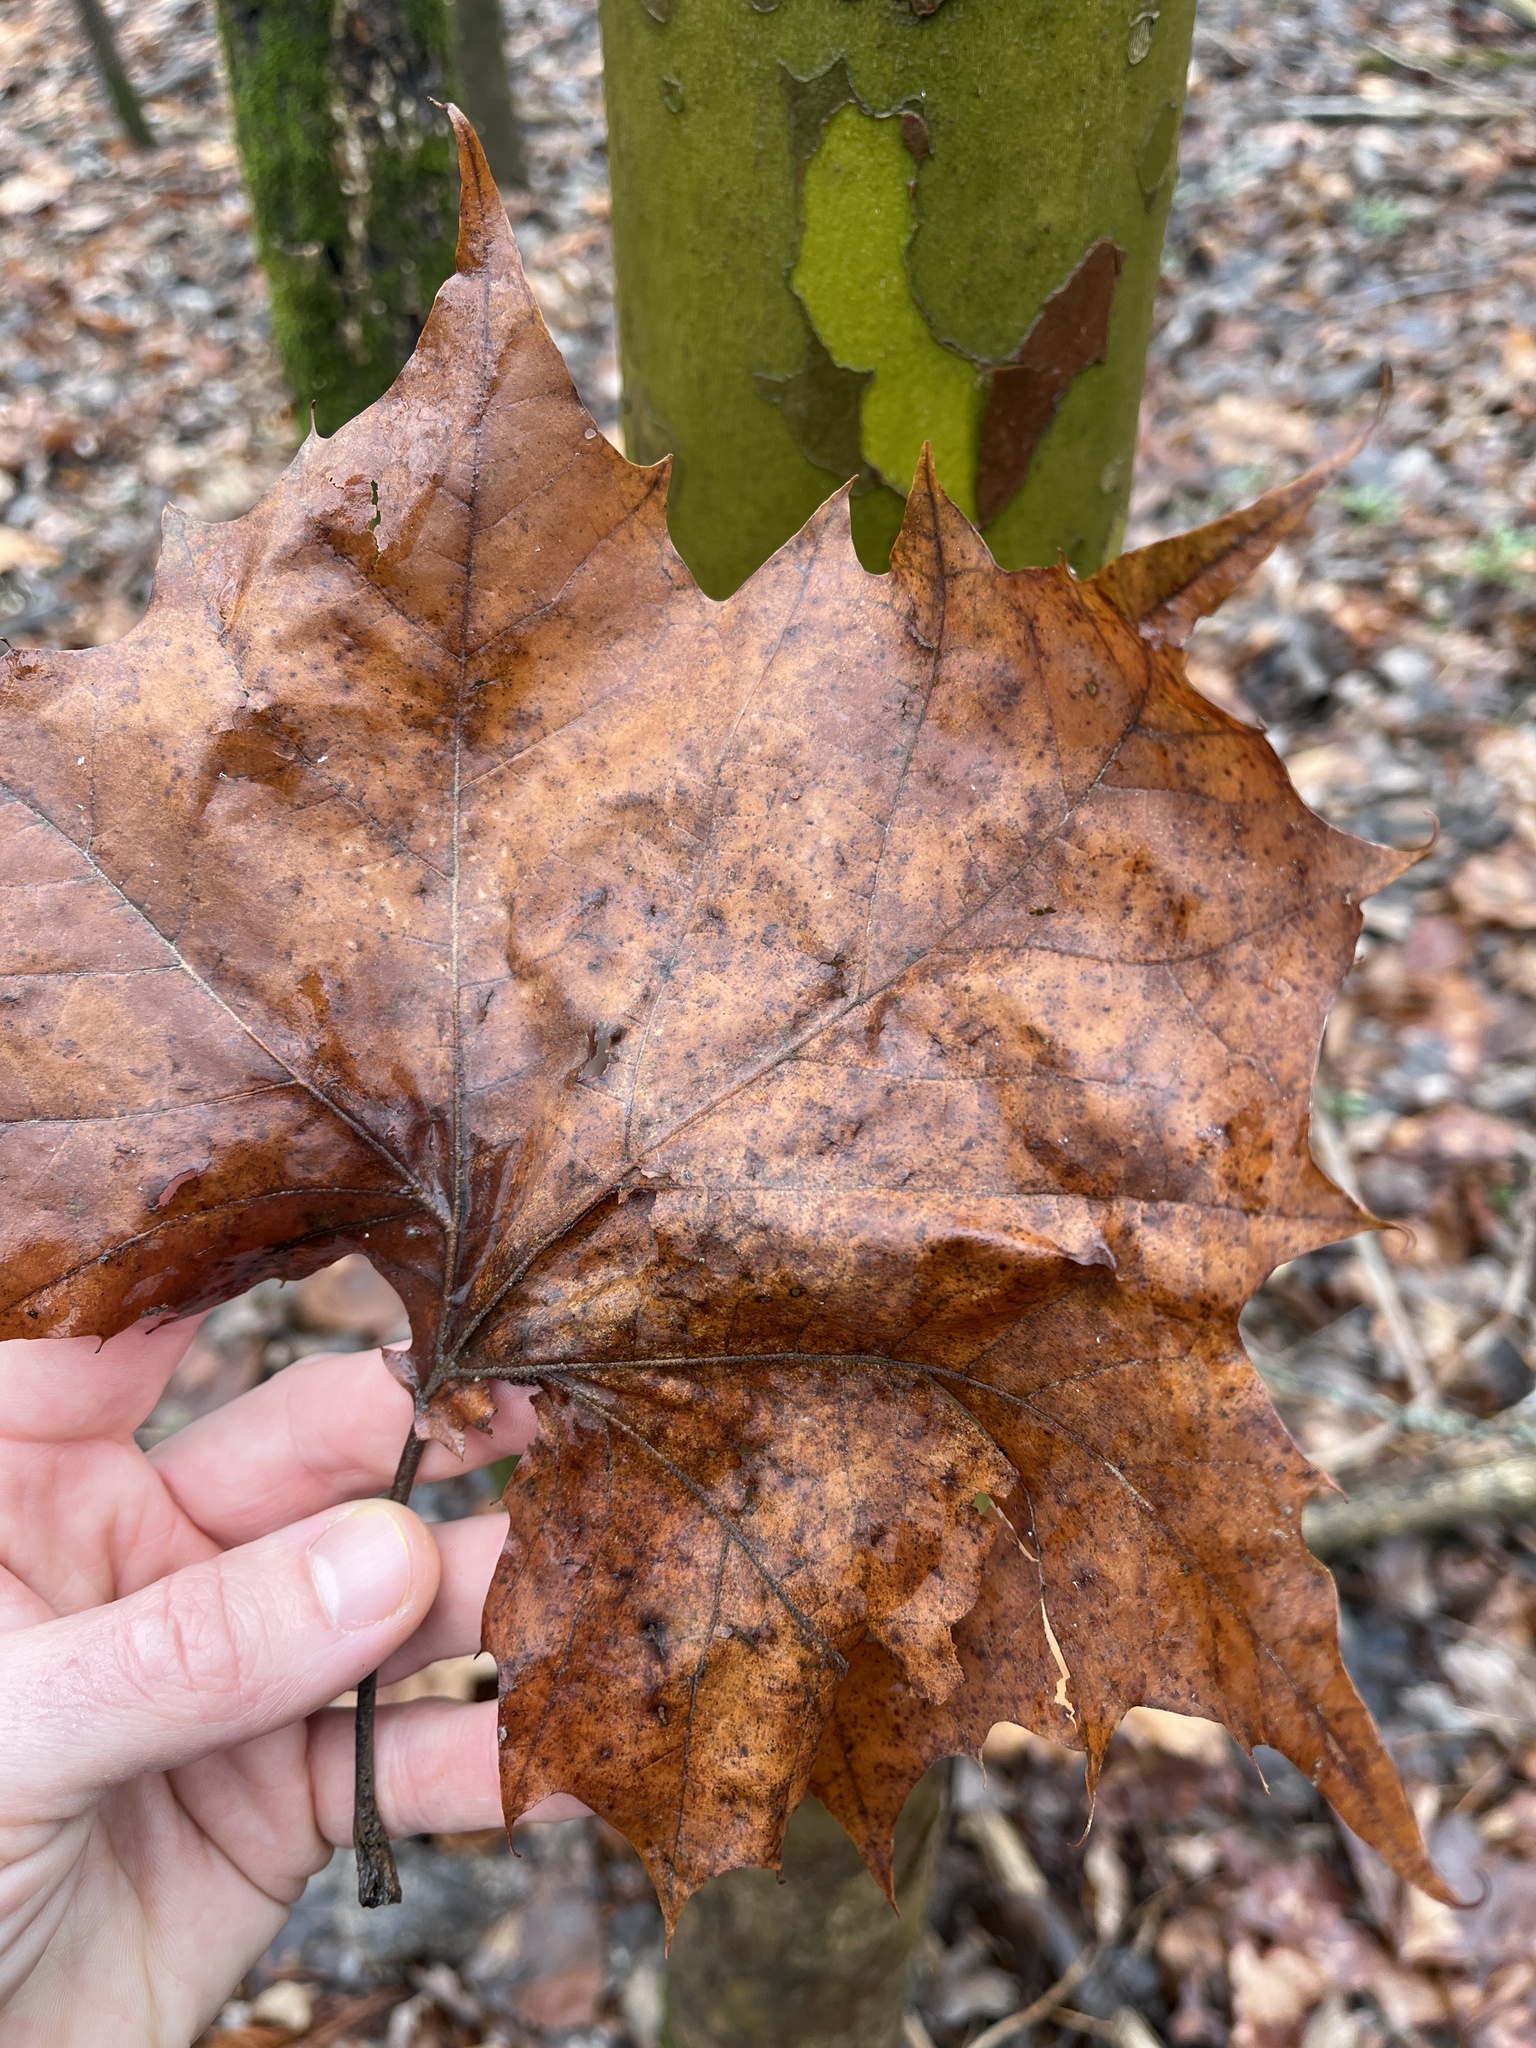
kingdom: Plantae
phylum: Tracheophyta
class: Magnoliopsida
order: Proteales
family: Platanaceae
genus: Platanus
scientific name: Platanus occidentalis
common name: American sycamore
